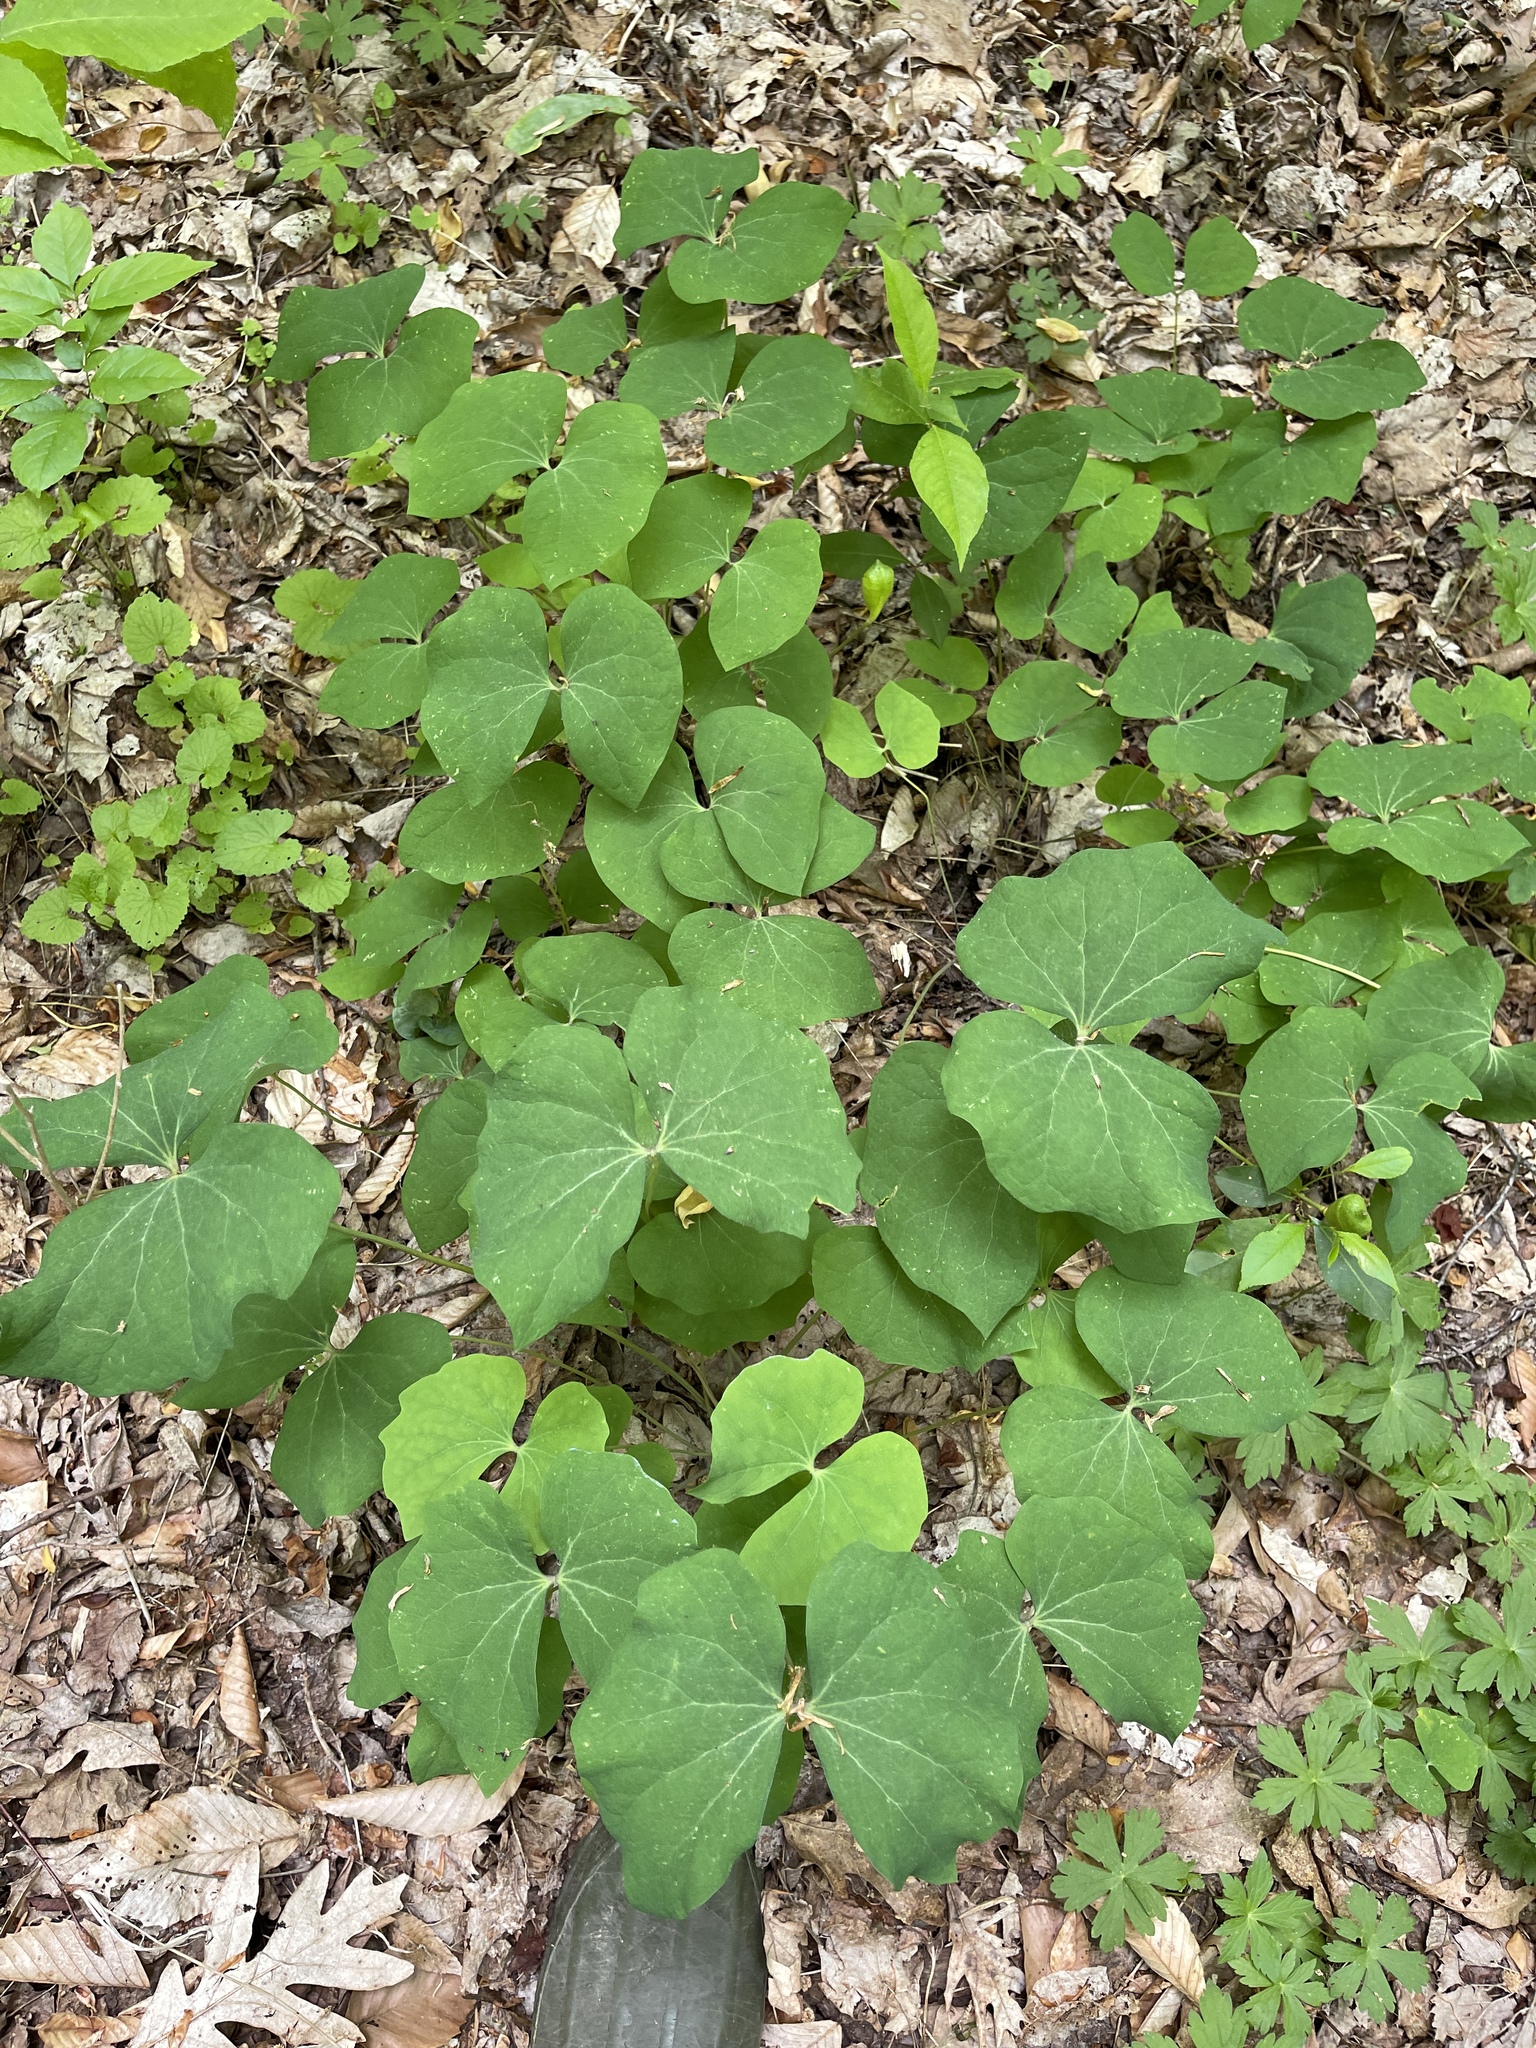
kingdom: Plantae
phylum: Tracheophyta
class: Magnoliopsida
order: Ranunculales
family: Berberidaceae
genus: Jeffersonia
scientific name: Jeffersonia diphylla
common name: Rheumatism-root
